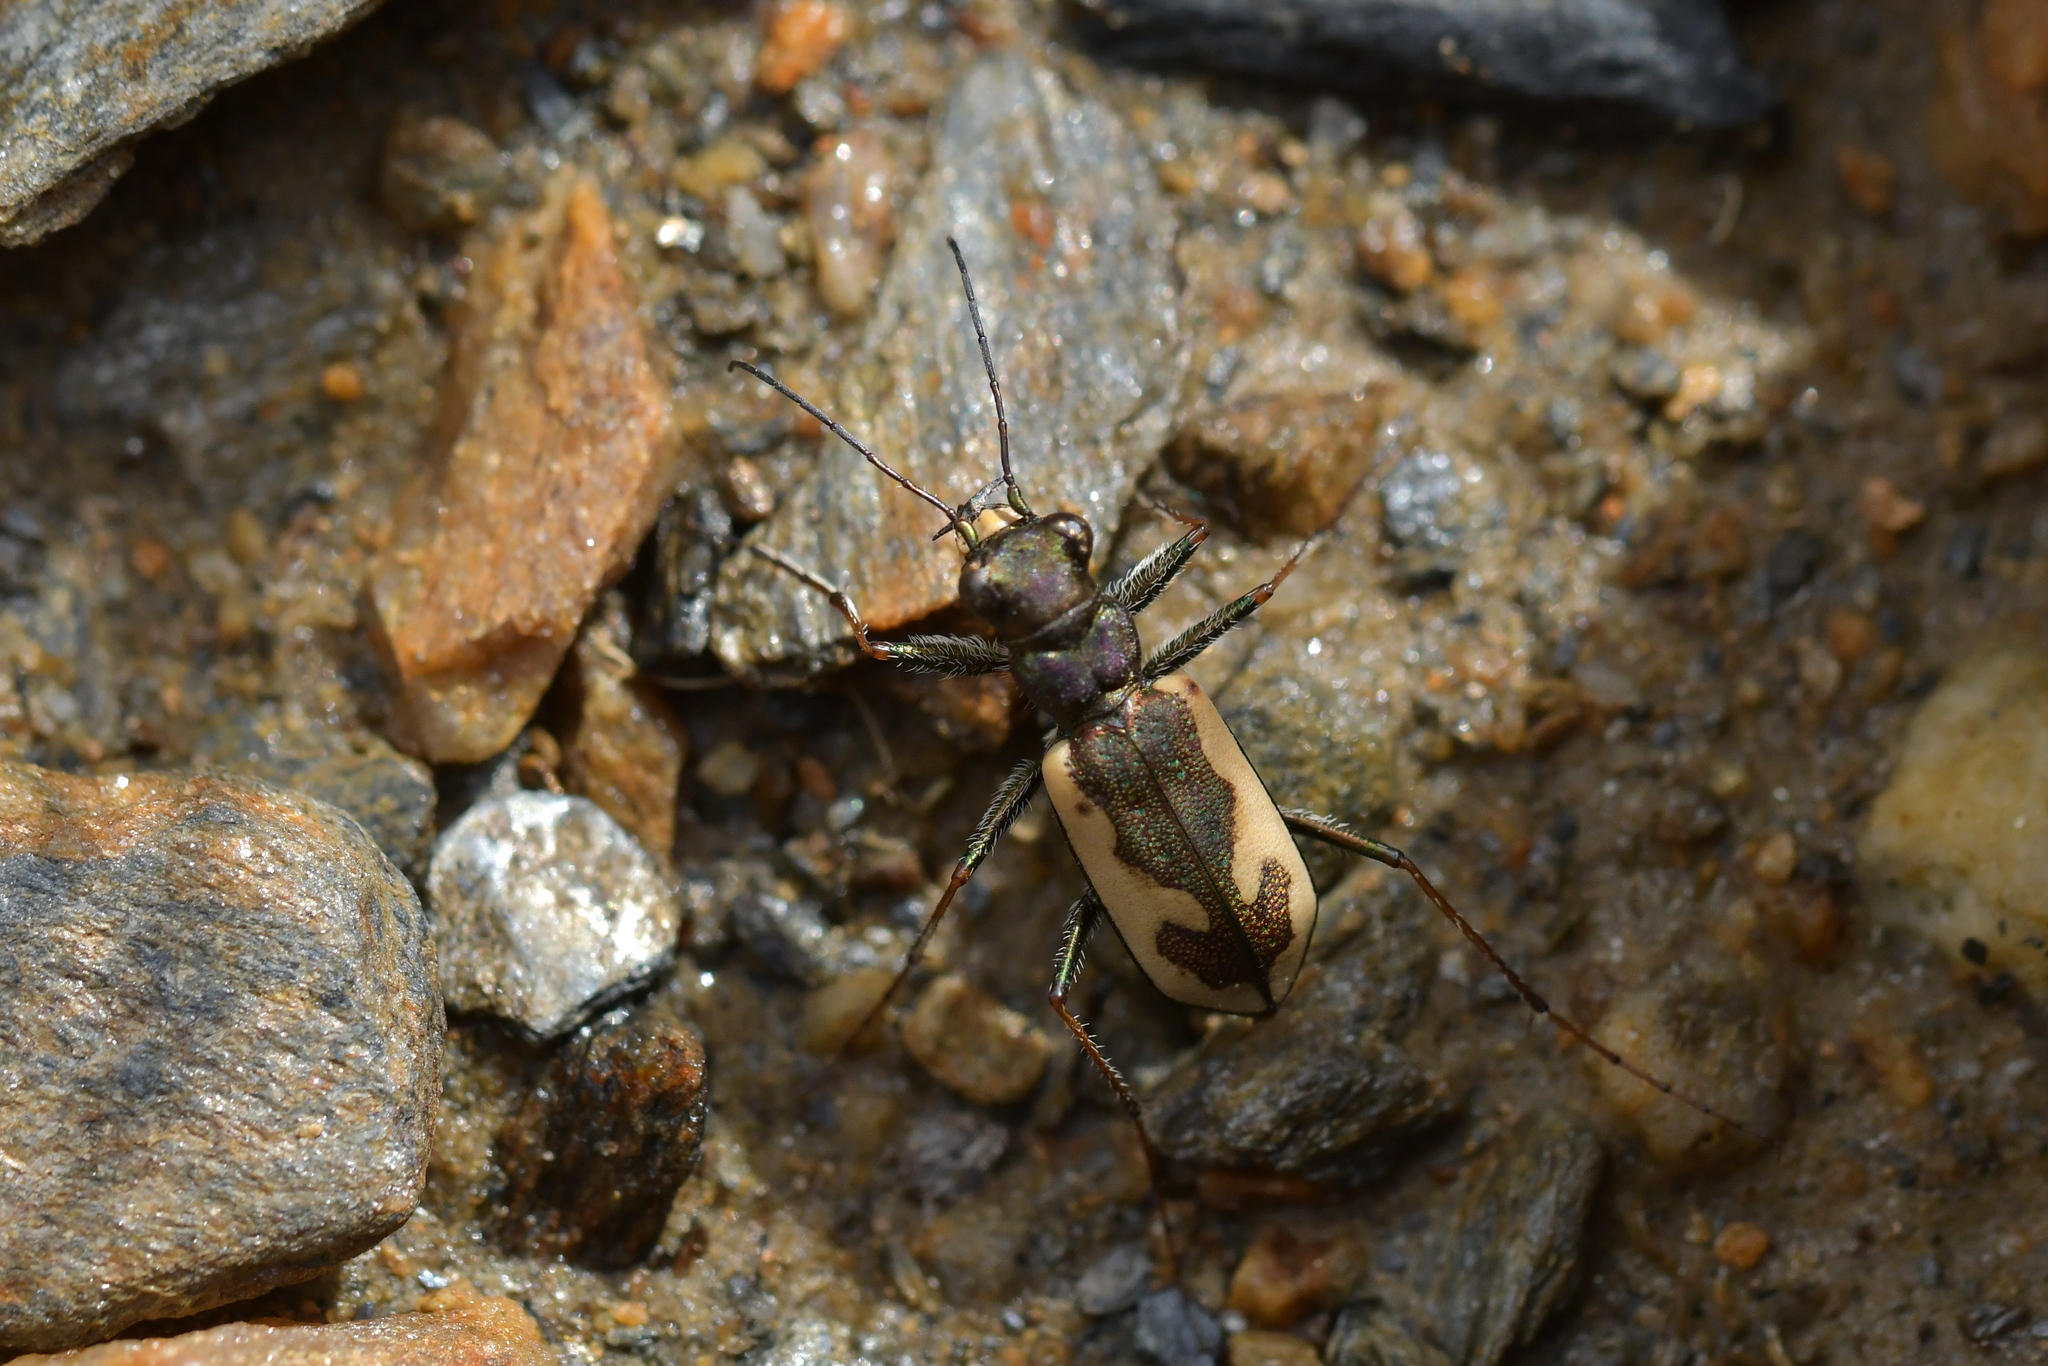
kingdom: Animalia
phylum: Arthropoda
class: Insecta
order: Coleoptera
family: Carabidae
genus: Neocicindela
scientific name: Neocicindela latecincta
